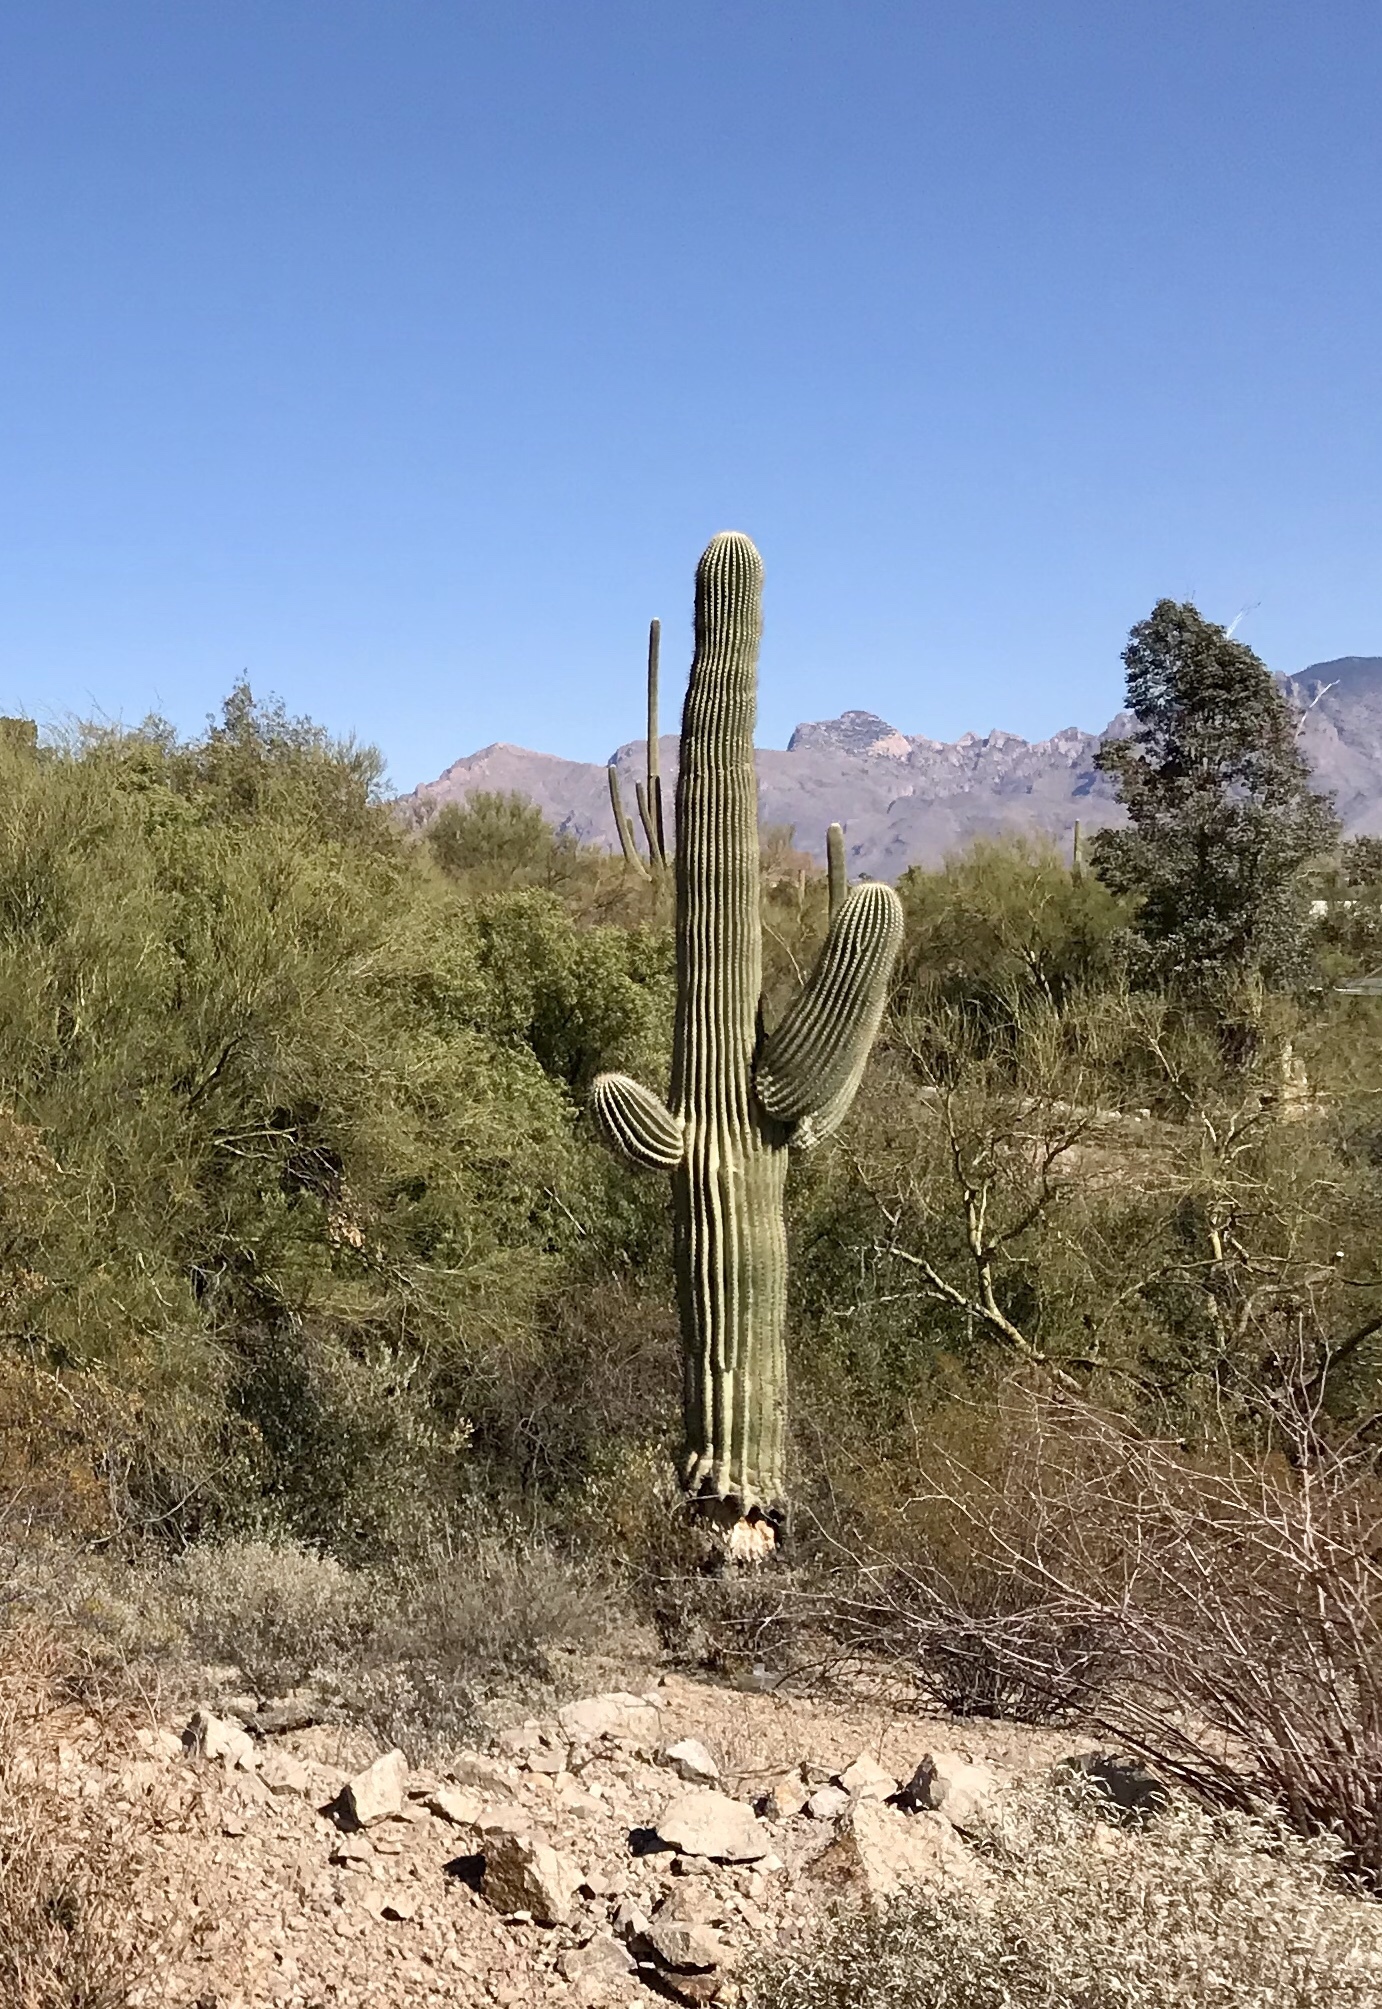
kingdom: Plantae
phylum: Tracheophyta
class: Magnoliopsida
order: Caryophyllales
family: Cactaceae
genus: Carnegiea
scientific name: Carnegiea gigantea
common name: Saguaro
